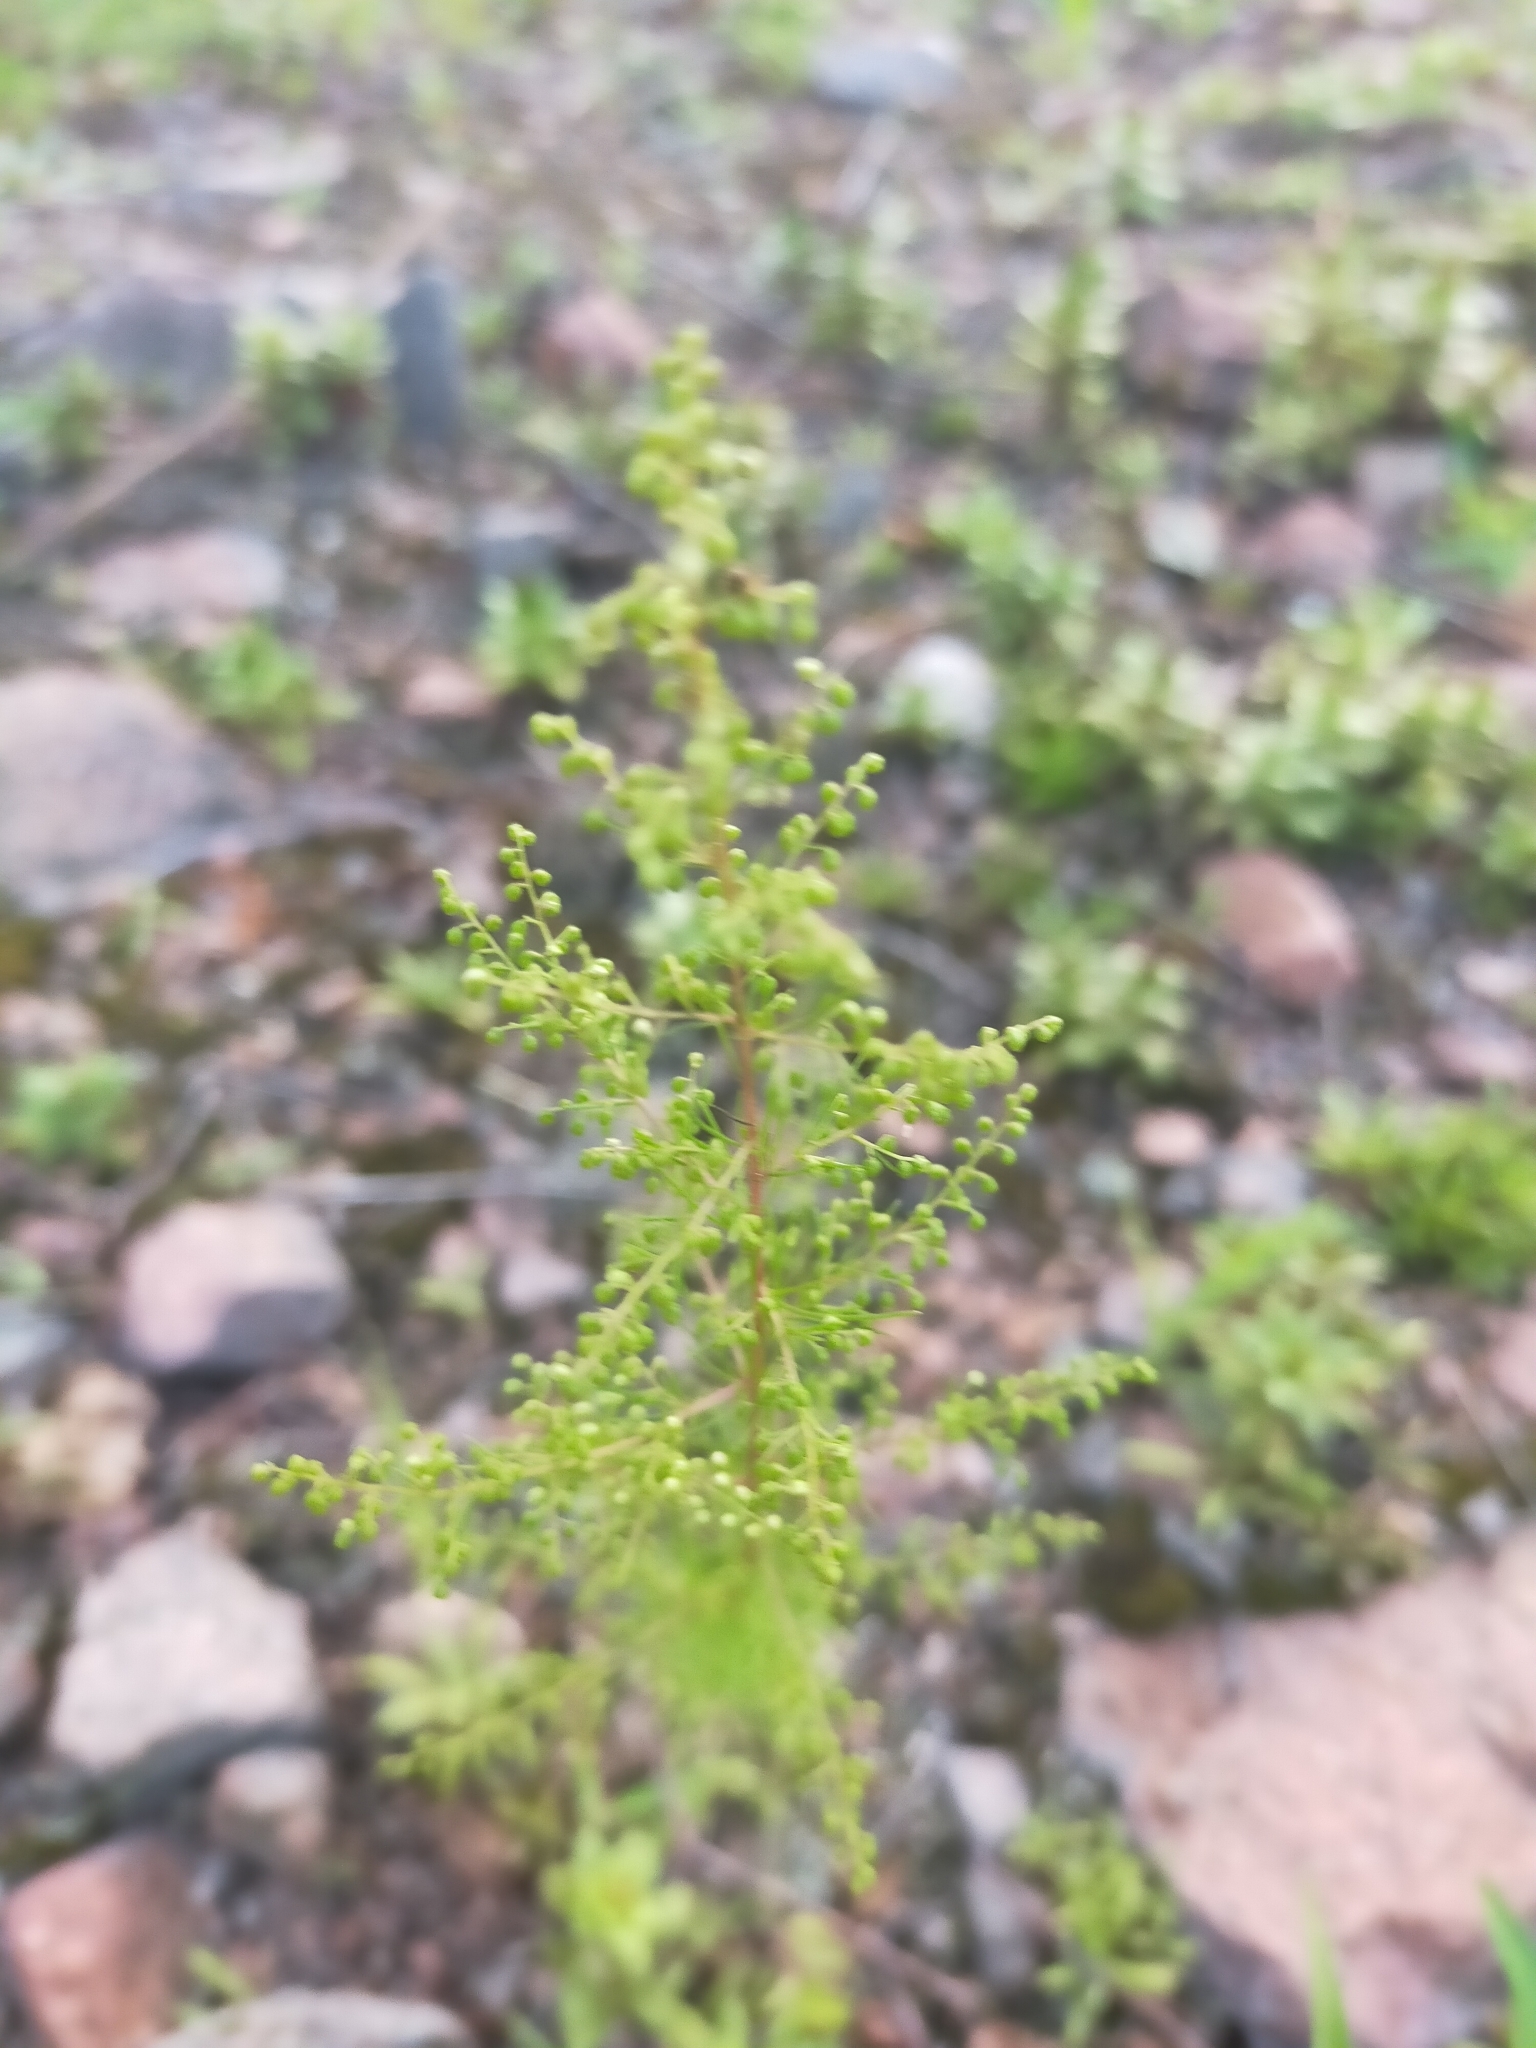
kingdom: Plantae
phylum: Tracheophyta
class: Magnoliopsida
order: Asterales
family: Asteraceae
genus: Artemisia
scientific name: Artemisia scoparia
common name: Redstem wormwood
